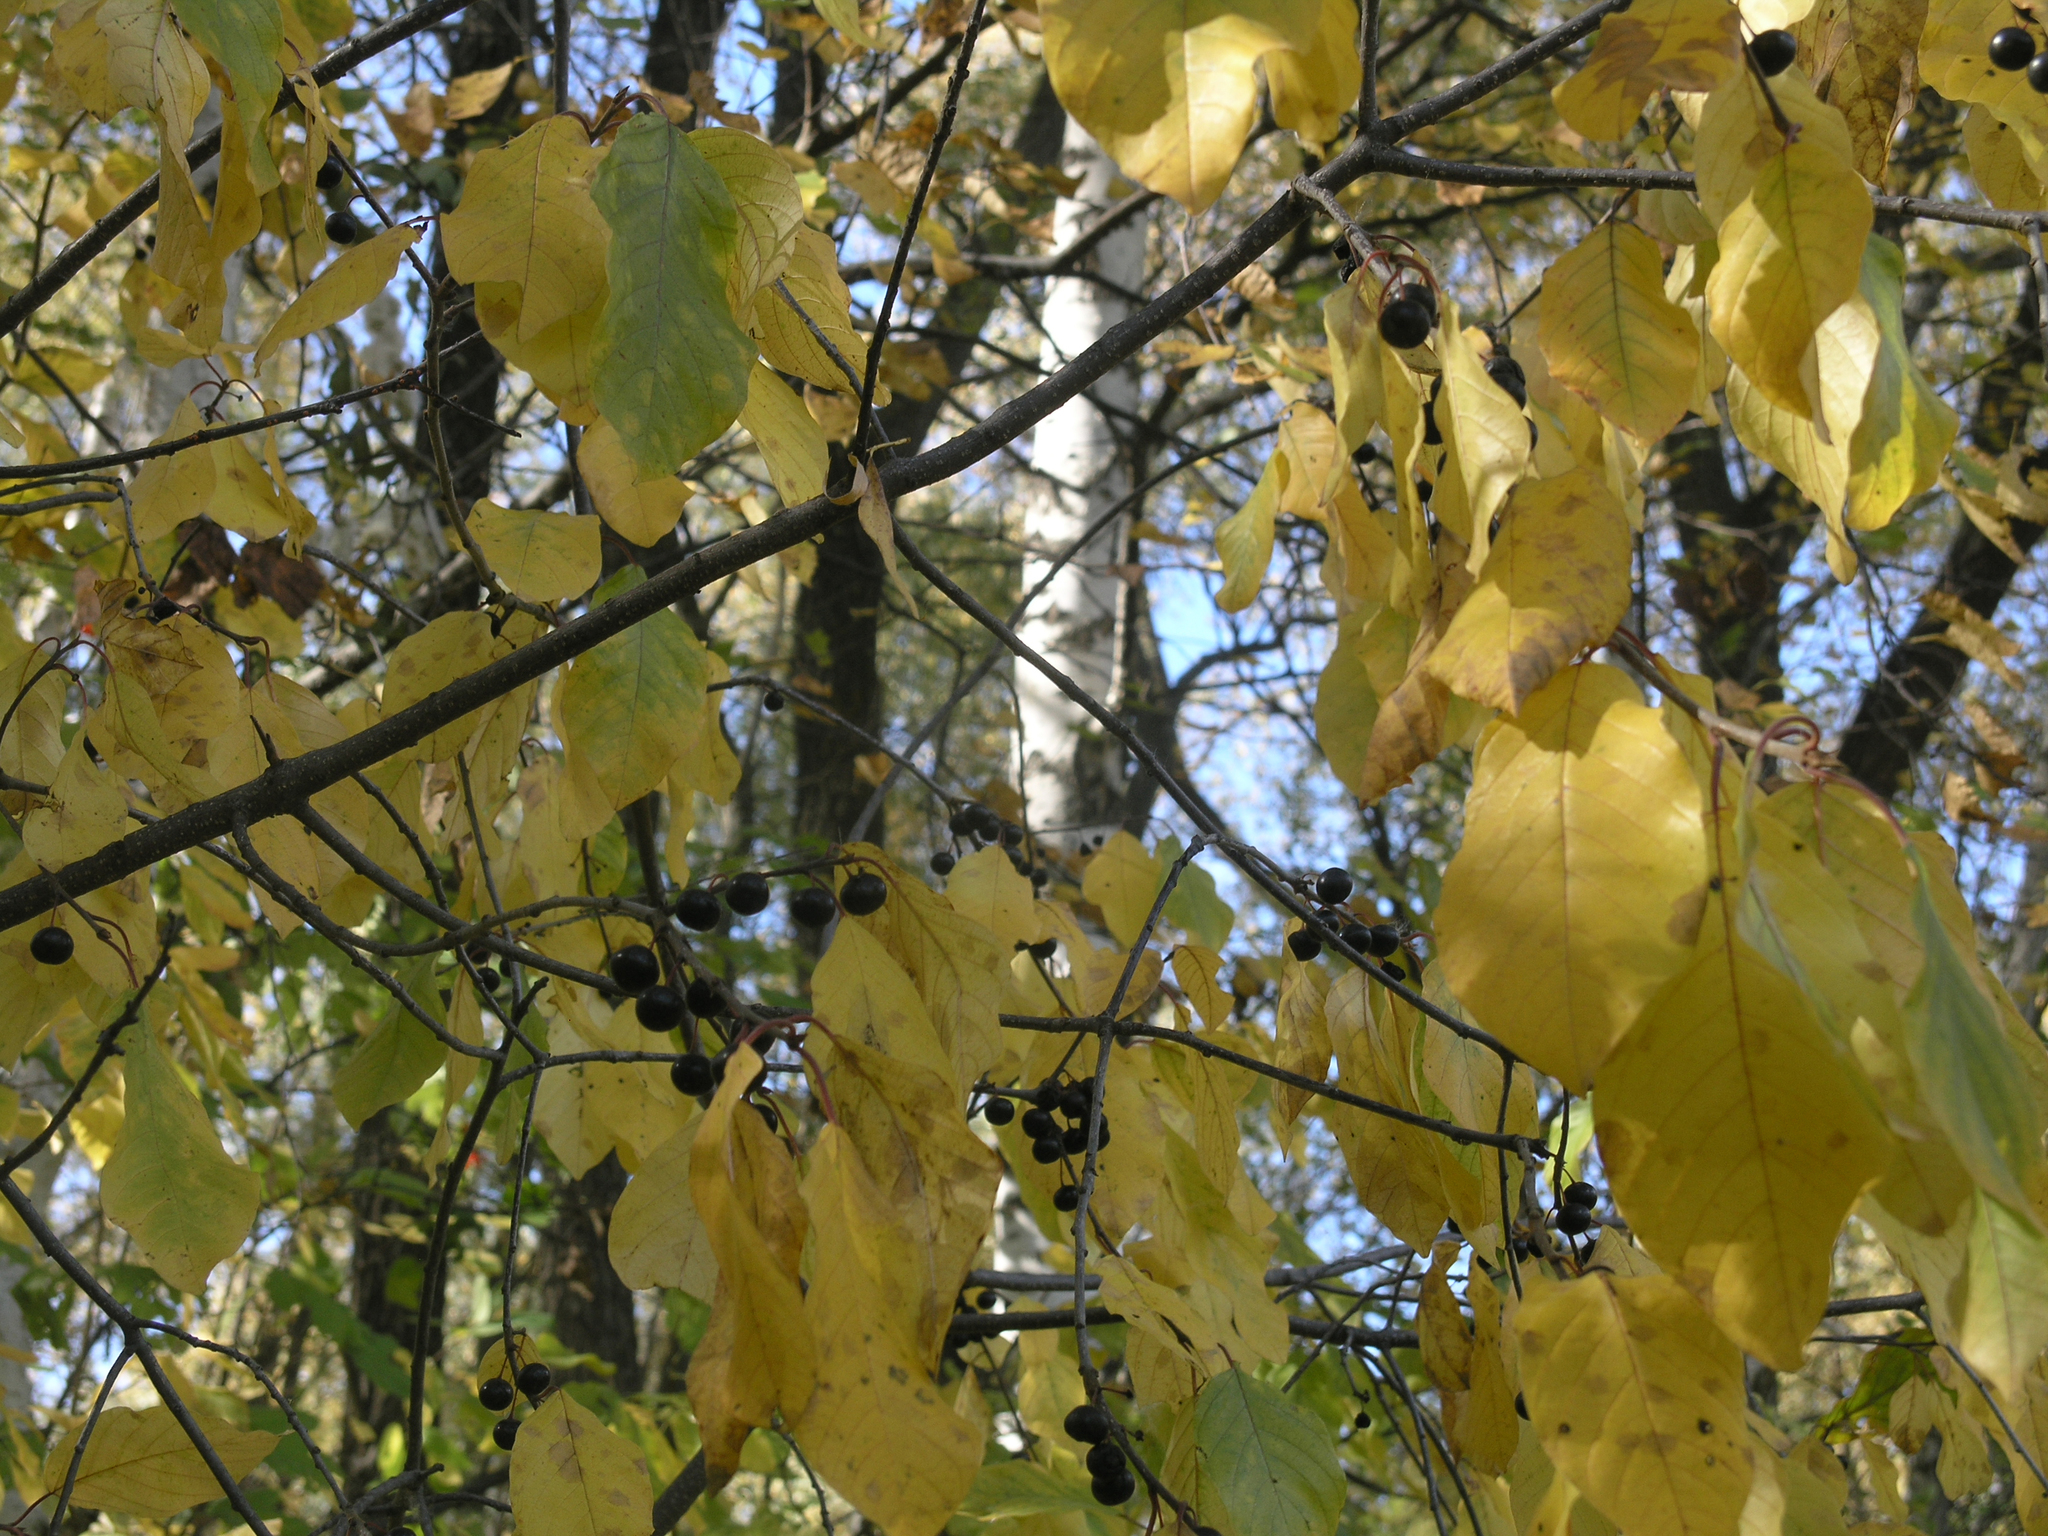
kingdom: Plantae
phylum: Tracheophyta
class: Magnoliopsida
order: Rosales
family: Rosaceae
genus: Prunus
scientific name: Prunus padus
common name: Bird cherry
